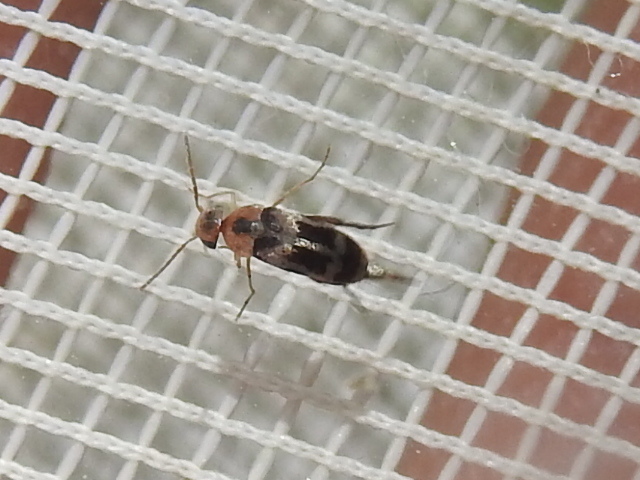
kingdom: Animalia
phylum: Arthropoda
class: Insecta
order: Coleoptera
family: Mordellidae
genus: Falsomordellistena
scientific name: Falsomordellistena hebraica
